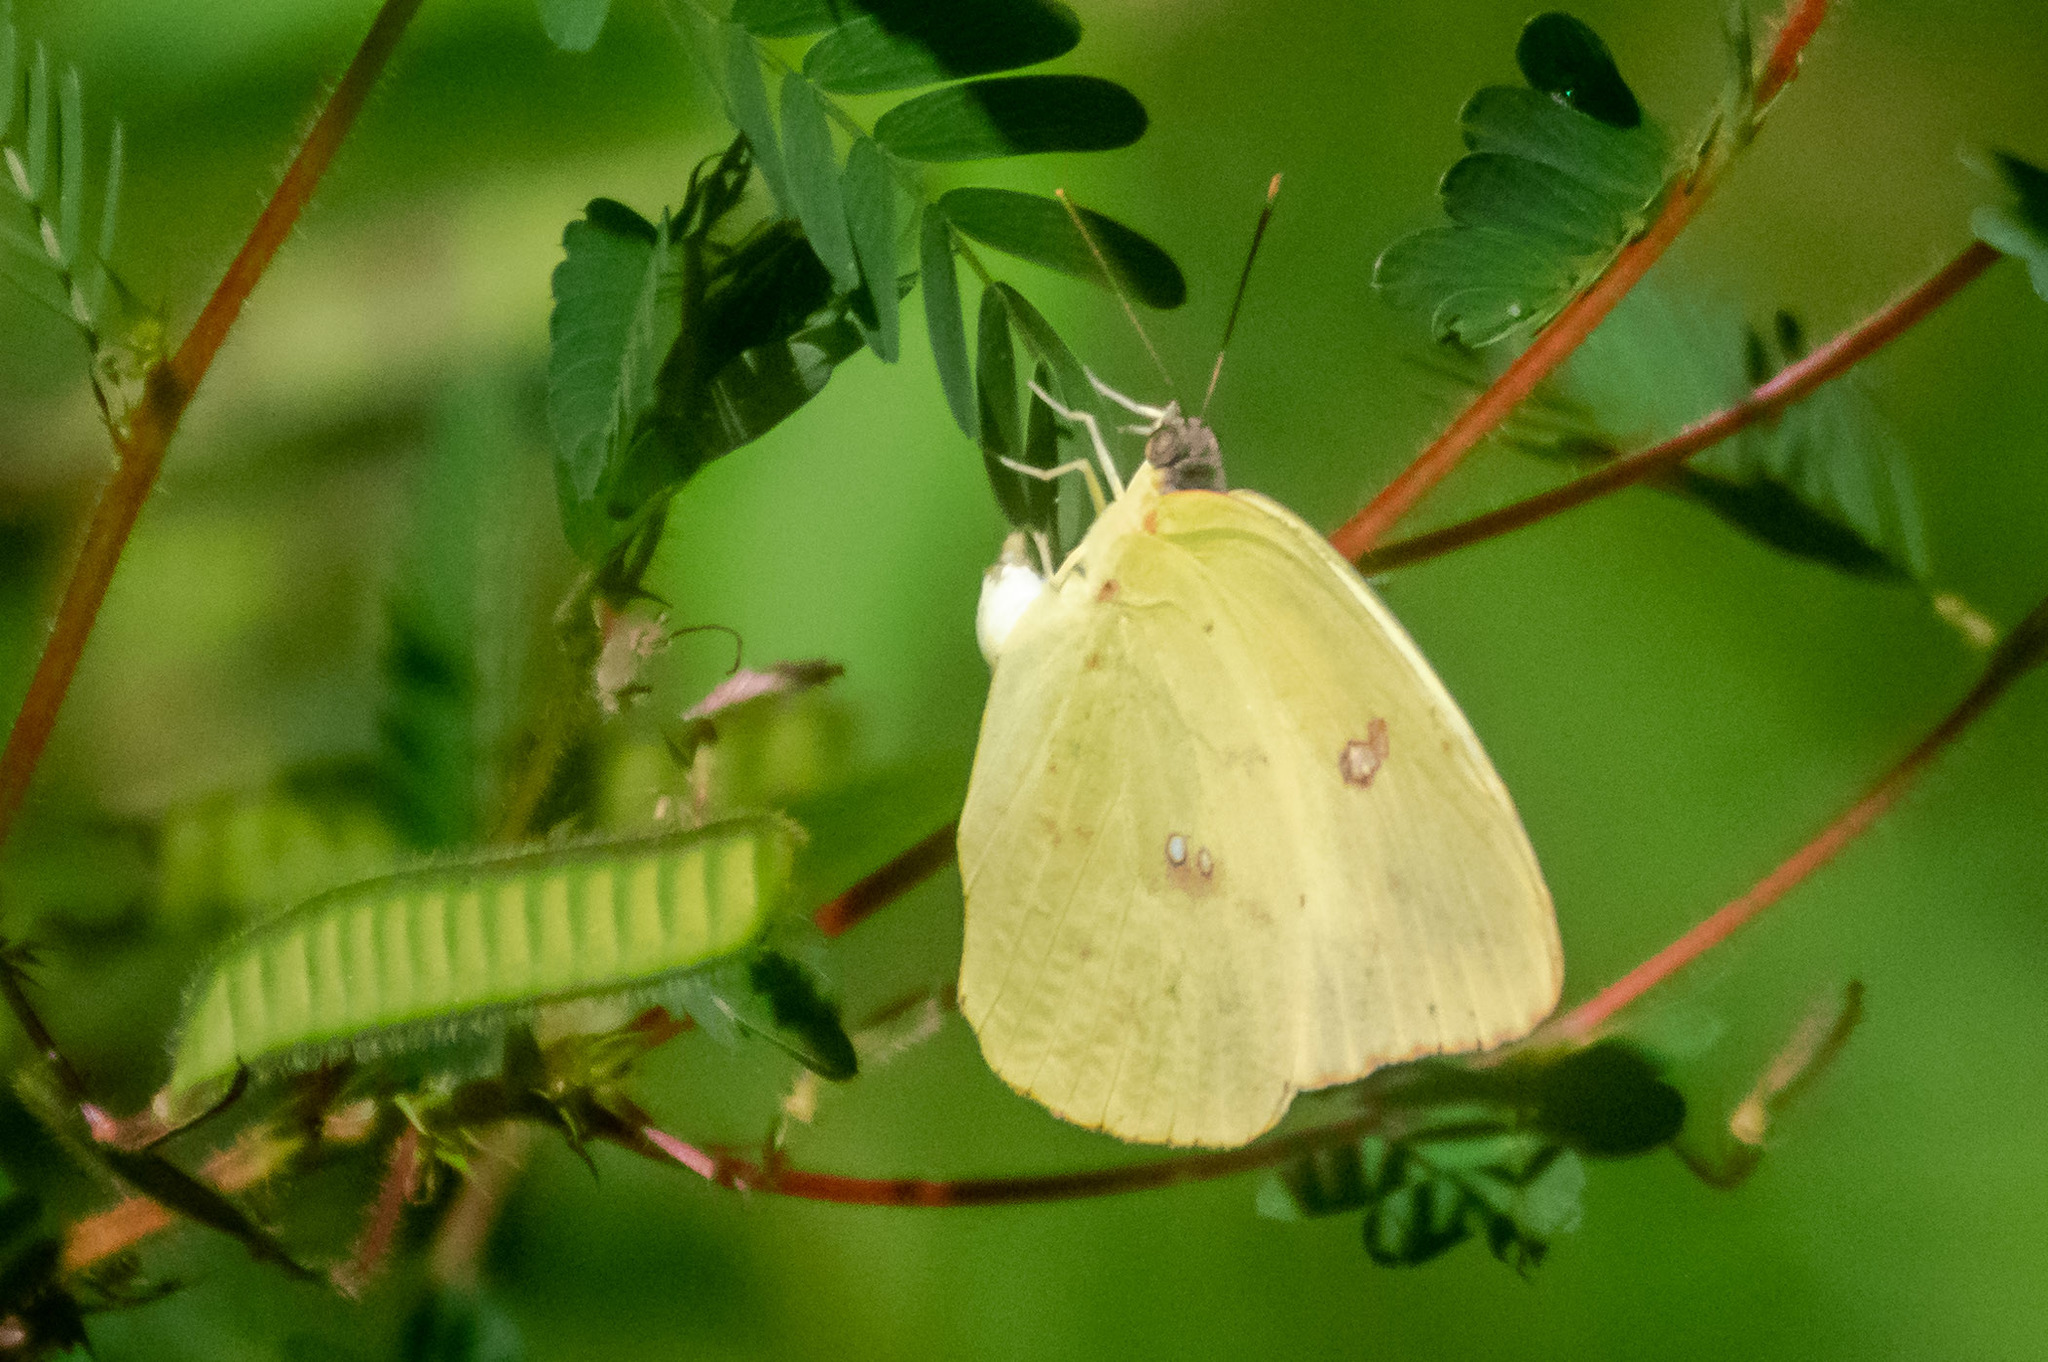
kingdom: Animalia
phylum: Arthropoda
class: Insecta
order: Lepidoptera
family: Pieridae
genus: Phoebis
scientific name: Phoebis sennae
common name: Cloudless sulphur
